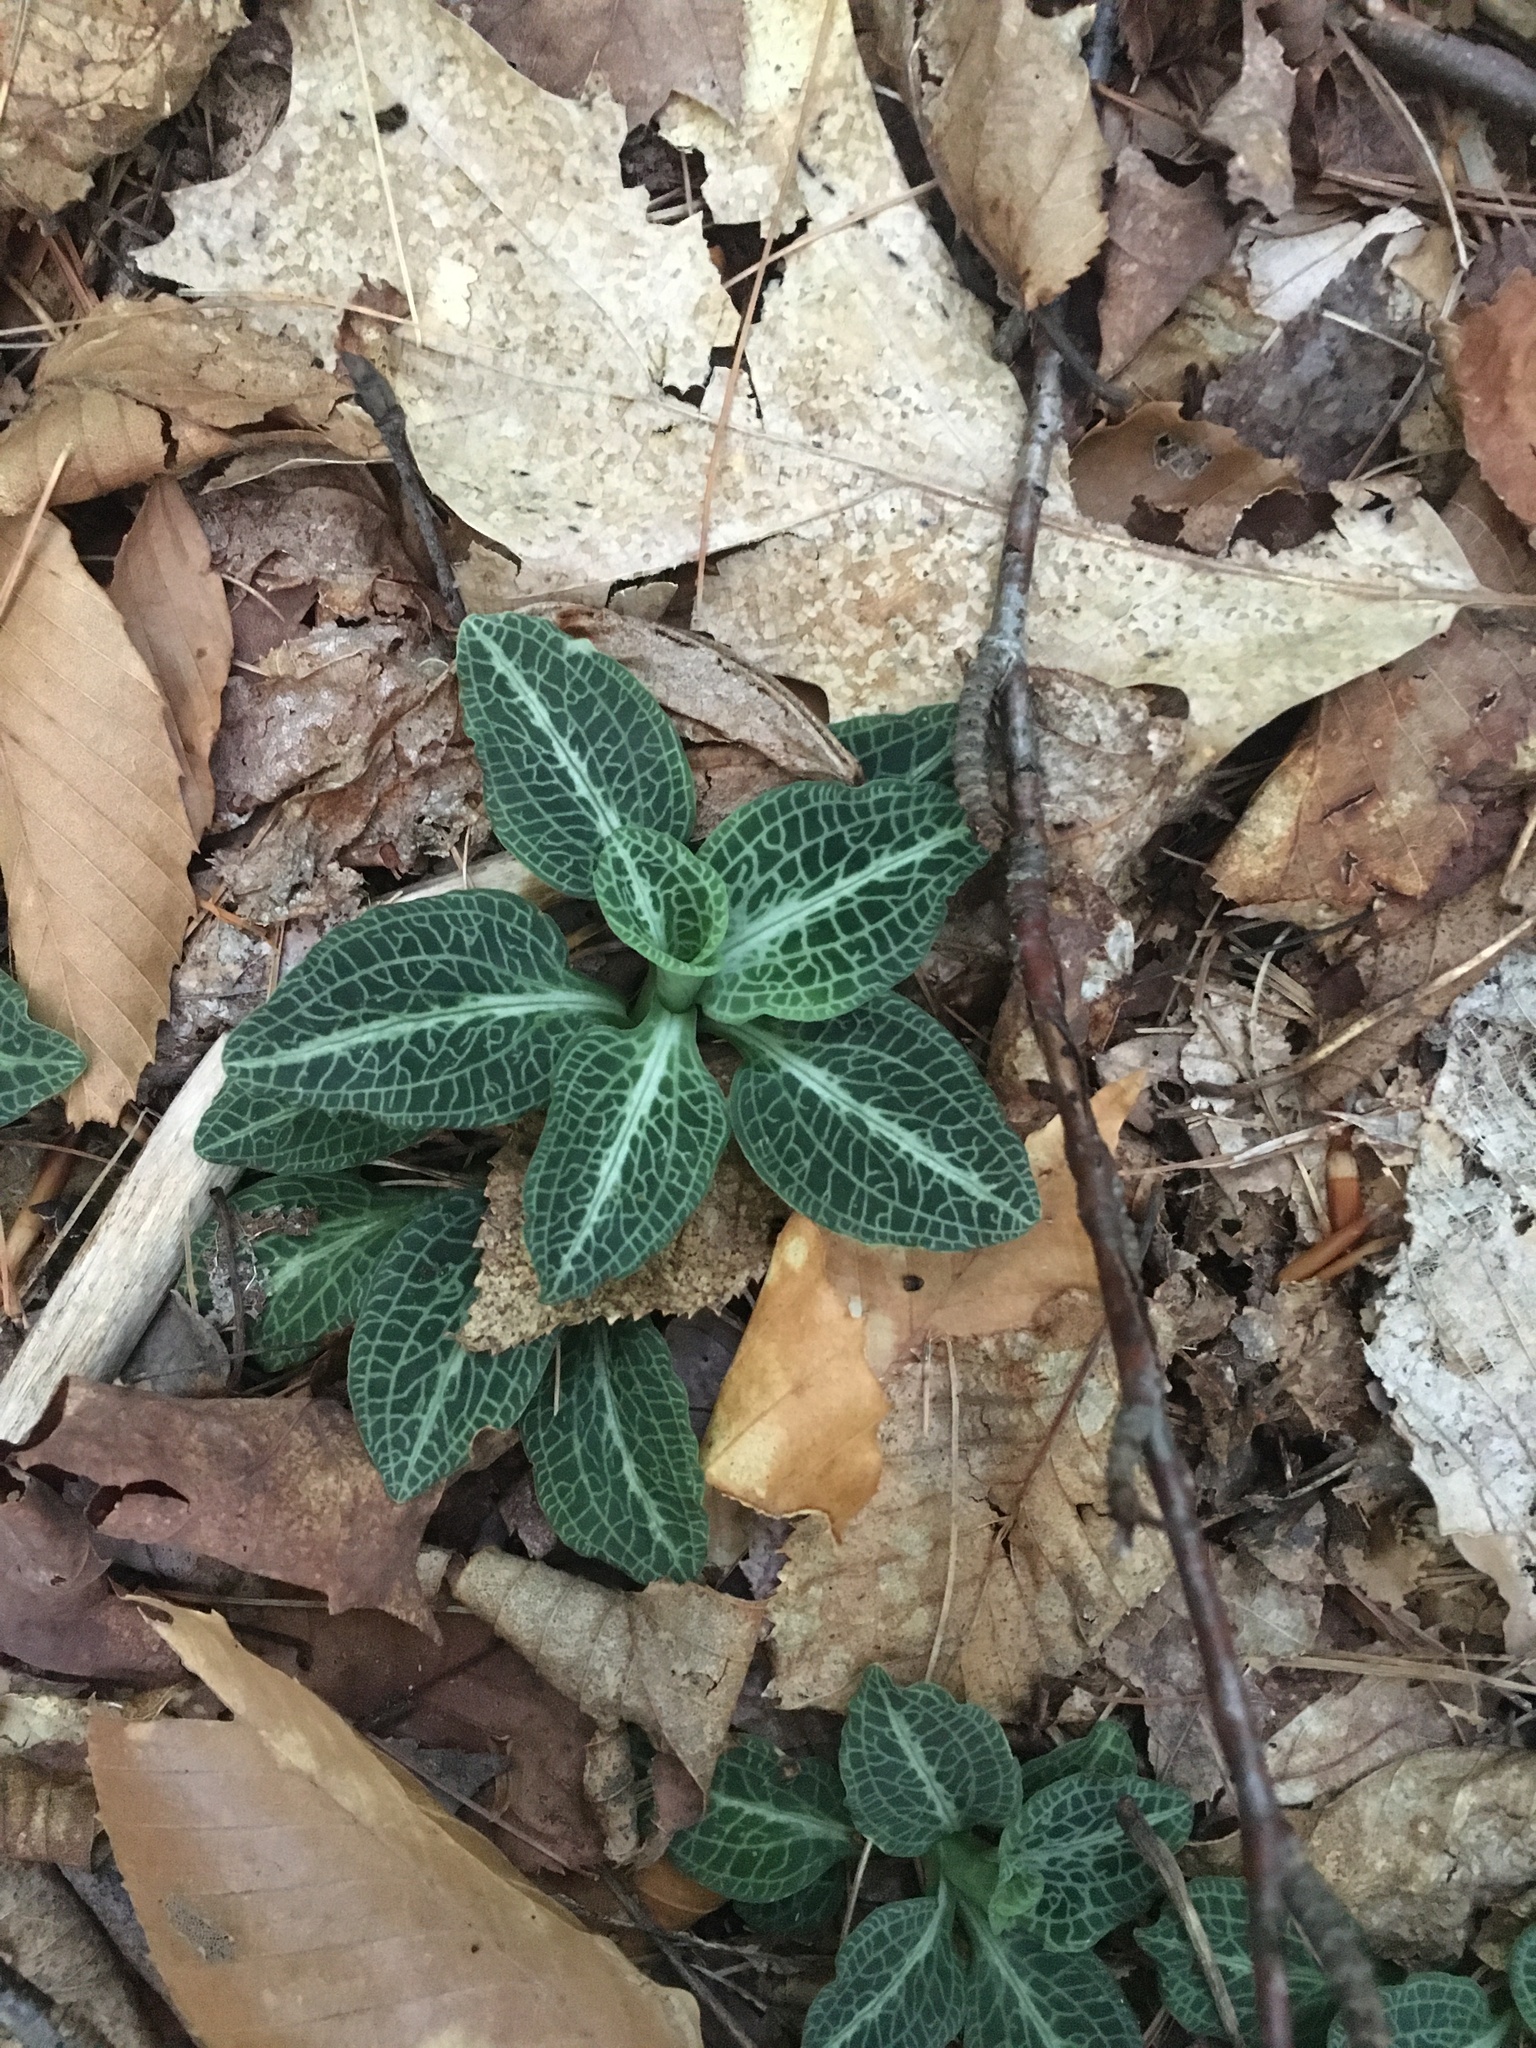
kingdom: Plantae
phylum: Tracheophyta
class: Liliopsida
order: Asparagales
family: Orchidaceae
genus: Goodyera
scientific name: Goodyera pubescens
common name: Downy rattlesnake-plantain
